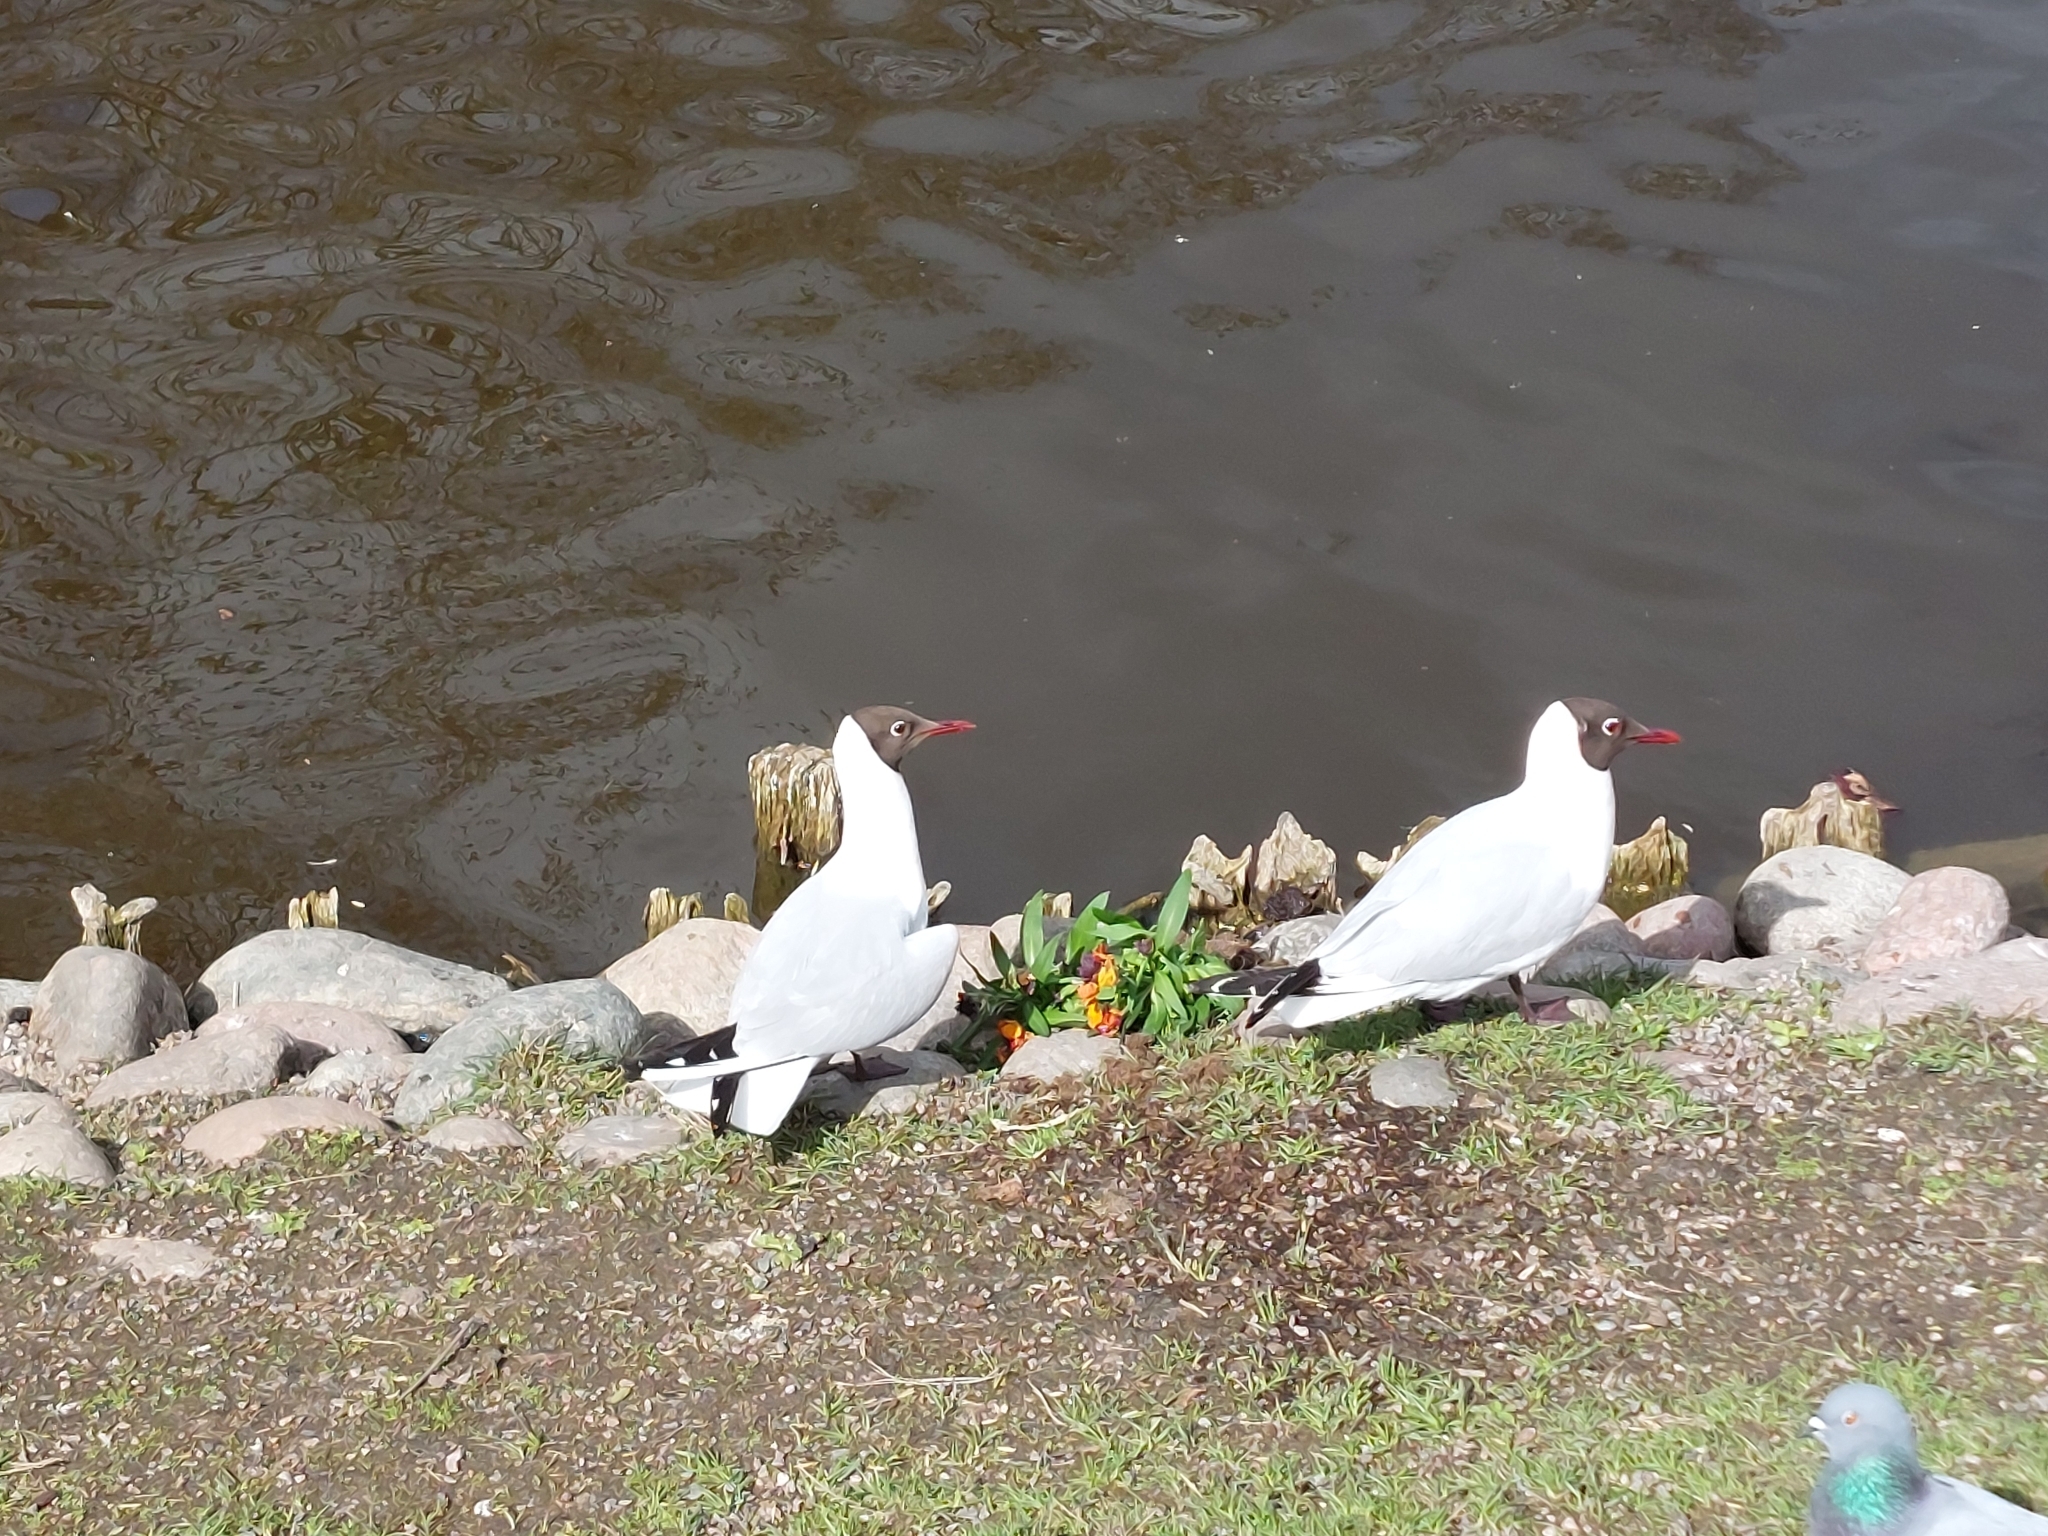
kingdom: Animalia
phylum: Chordata
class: Aves
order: Charadriiformes
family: Laridae
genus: Chroicocephalus
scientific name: Chroicocephalus ridibundus
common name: Black-headed gull
